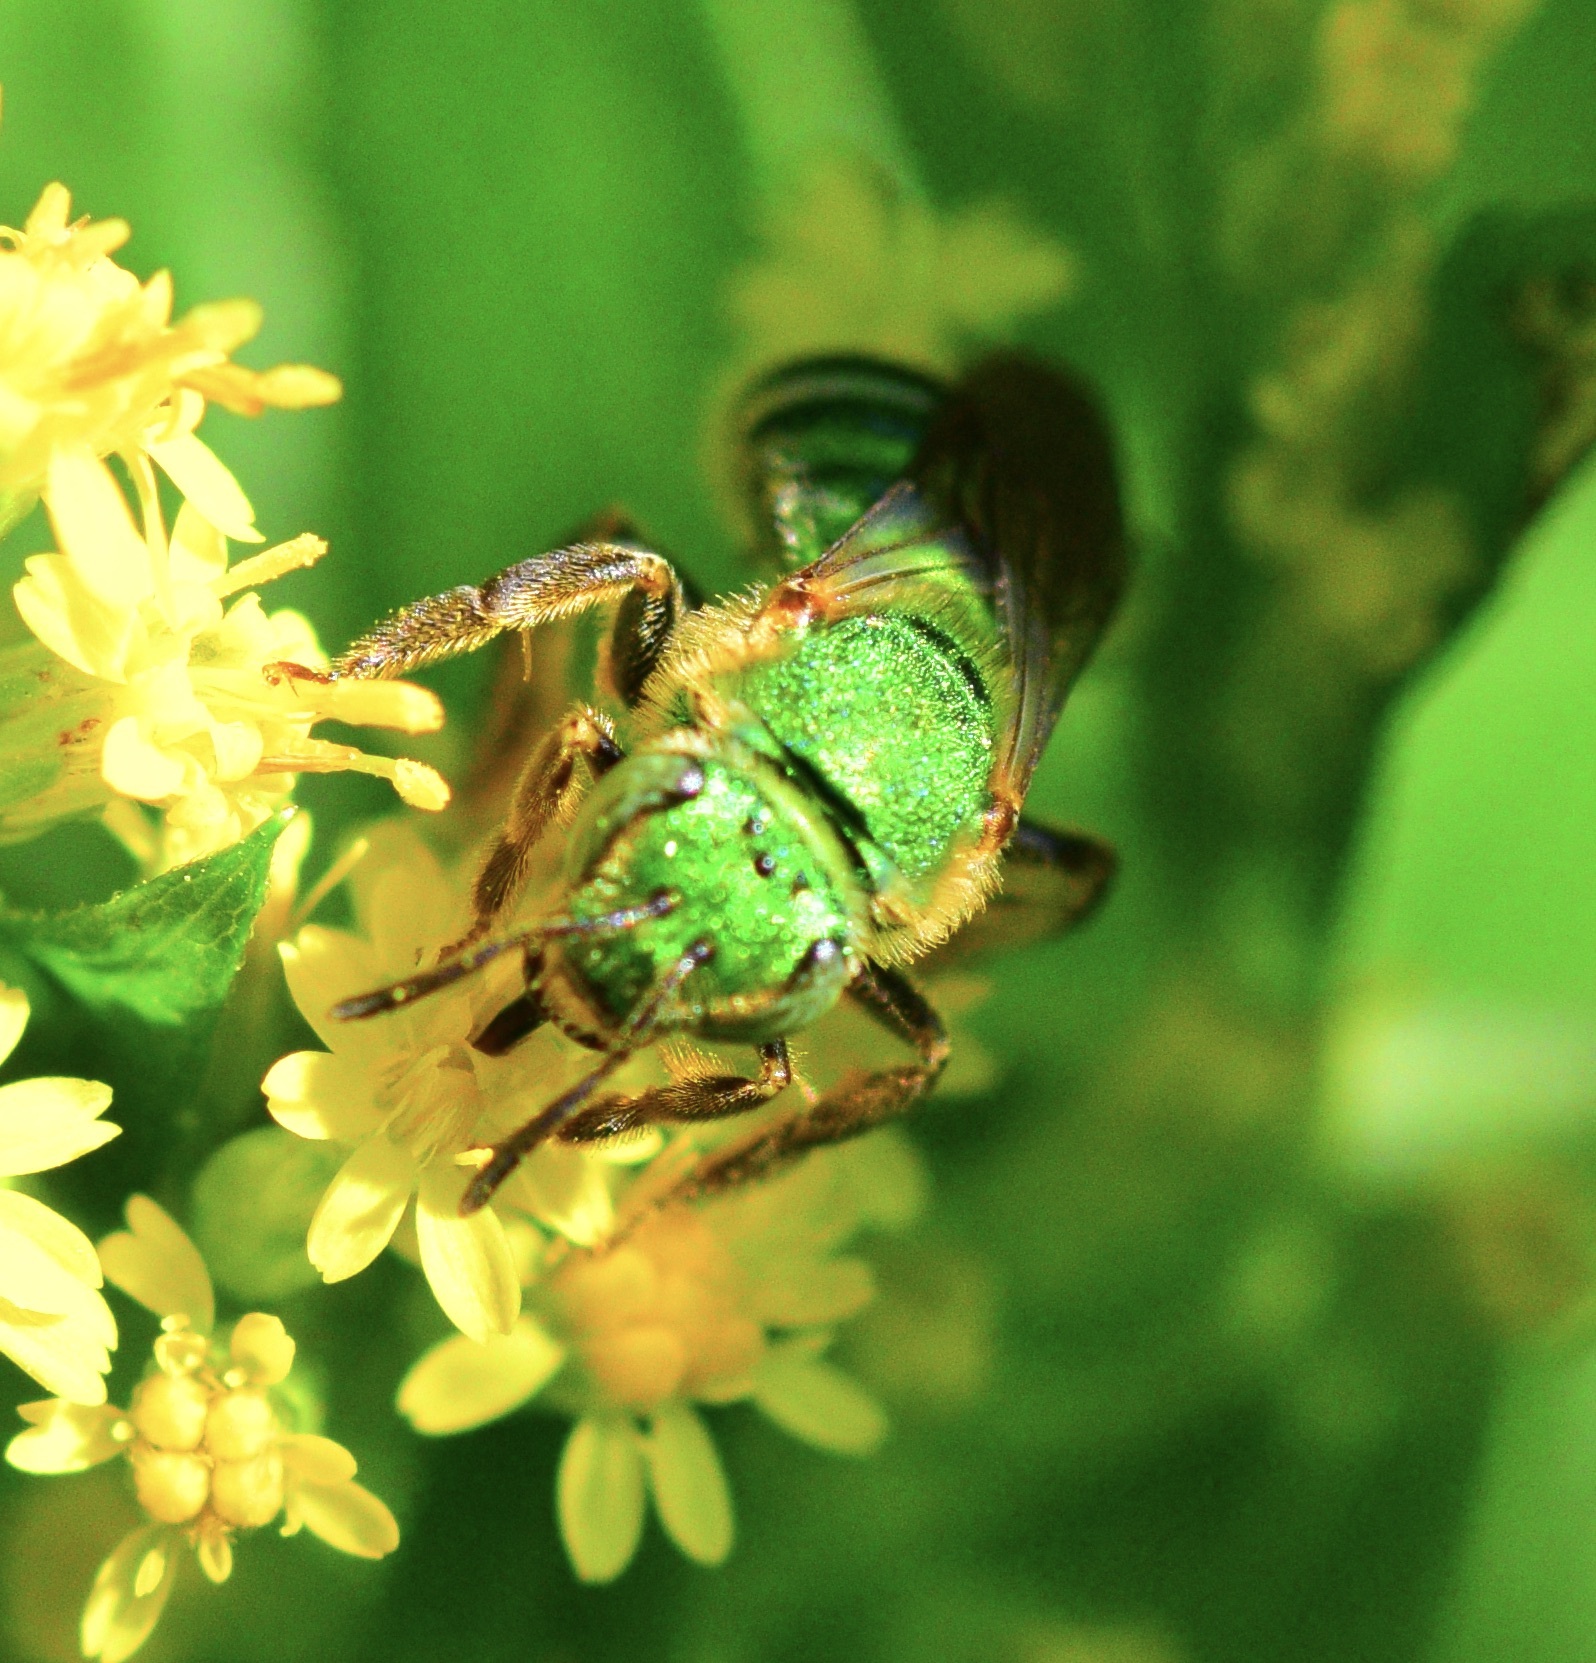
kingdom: Animalia
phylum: Arthropoda
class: Insecta
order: Hymenoptera
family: Halictidae
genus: Agapostemon
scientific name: Agapostemon sericeus
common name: Silky striped sweat bee
